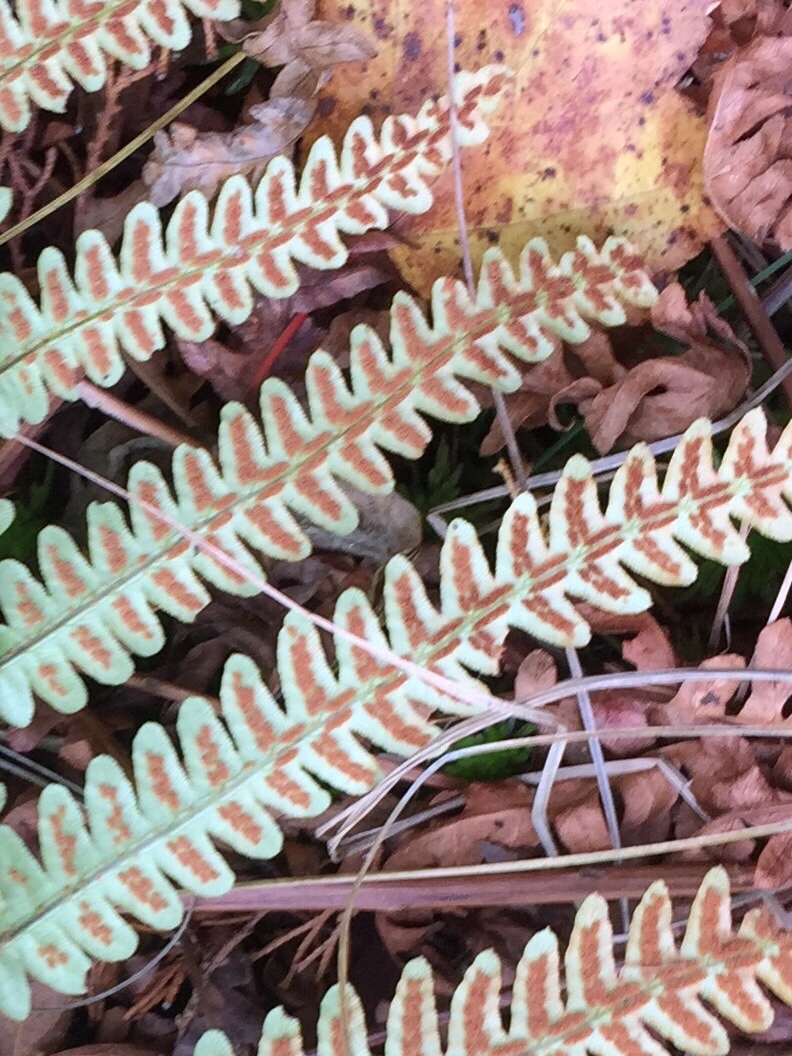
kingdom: Plantae
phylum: Tracheophyta
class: Polypodiopsida
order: Polypodiales
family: Blechnaceae
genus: Anchistea
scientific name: Anchistea virginica
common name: Virginia chain fern
